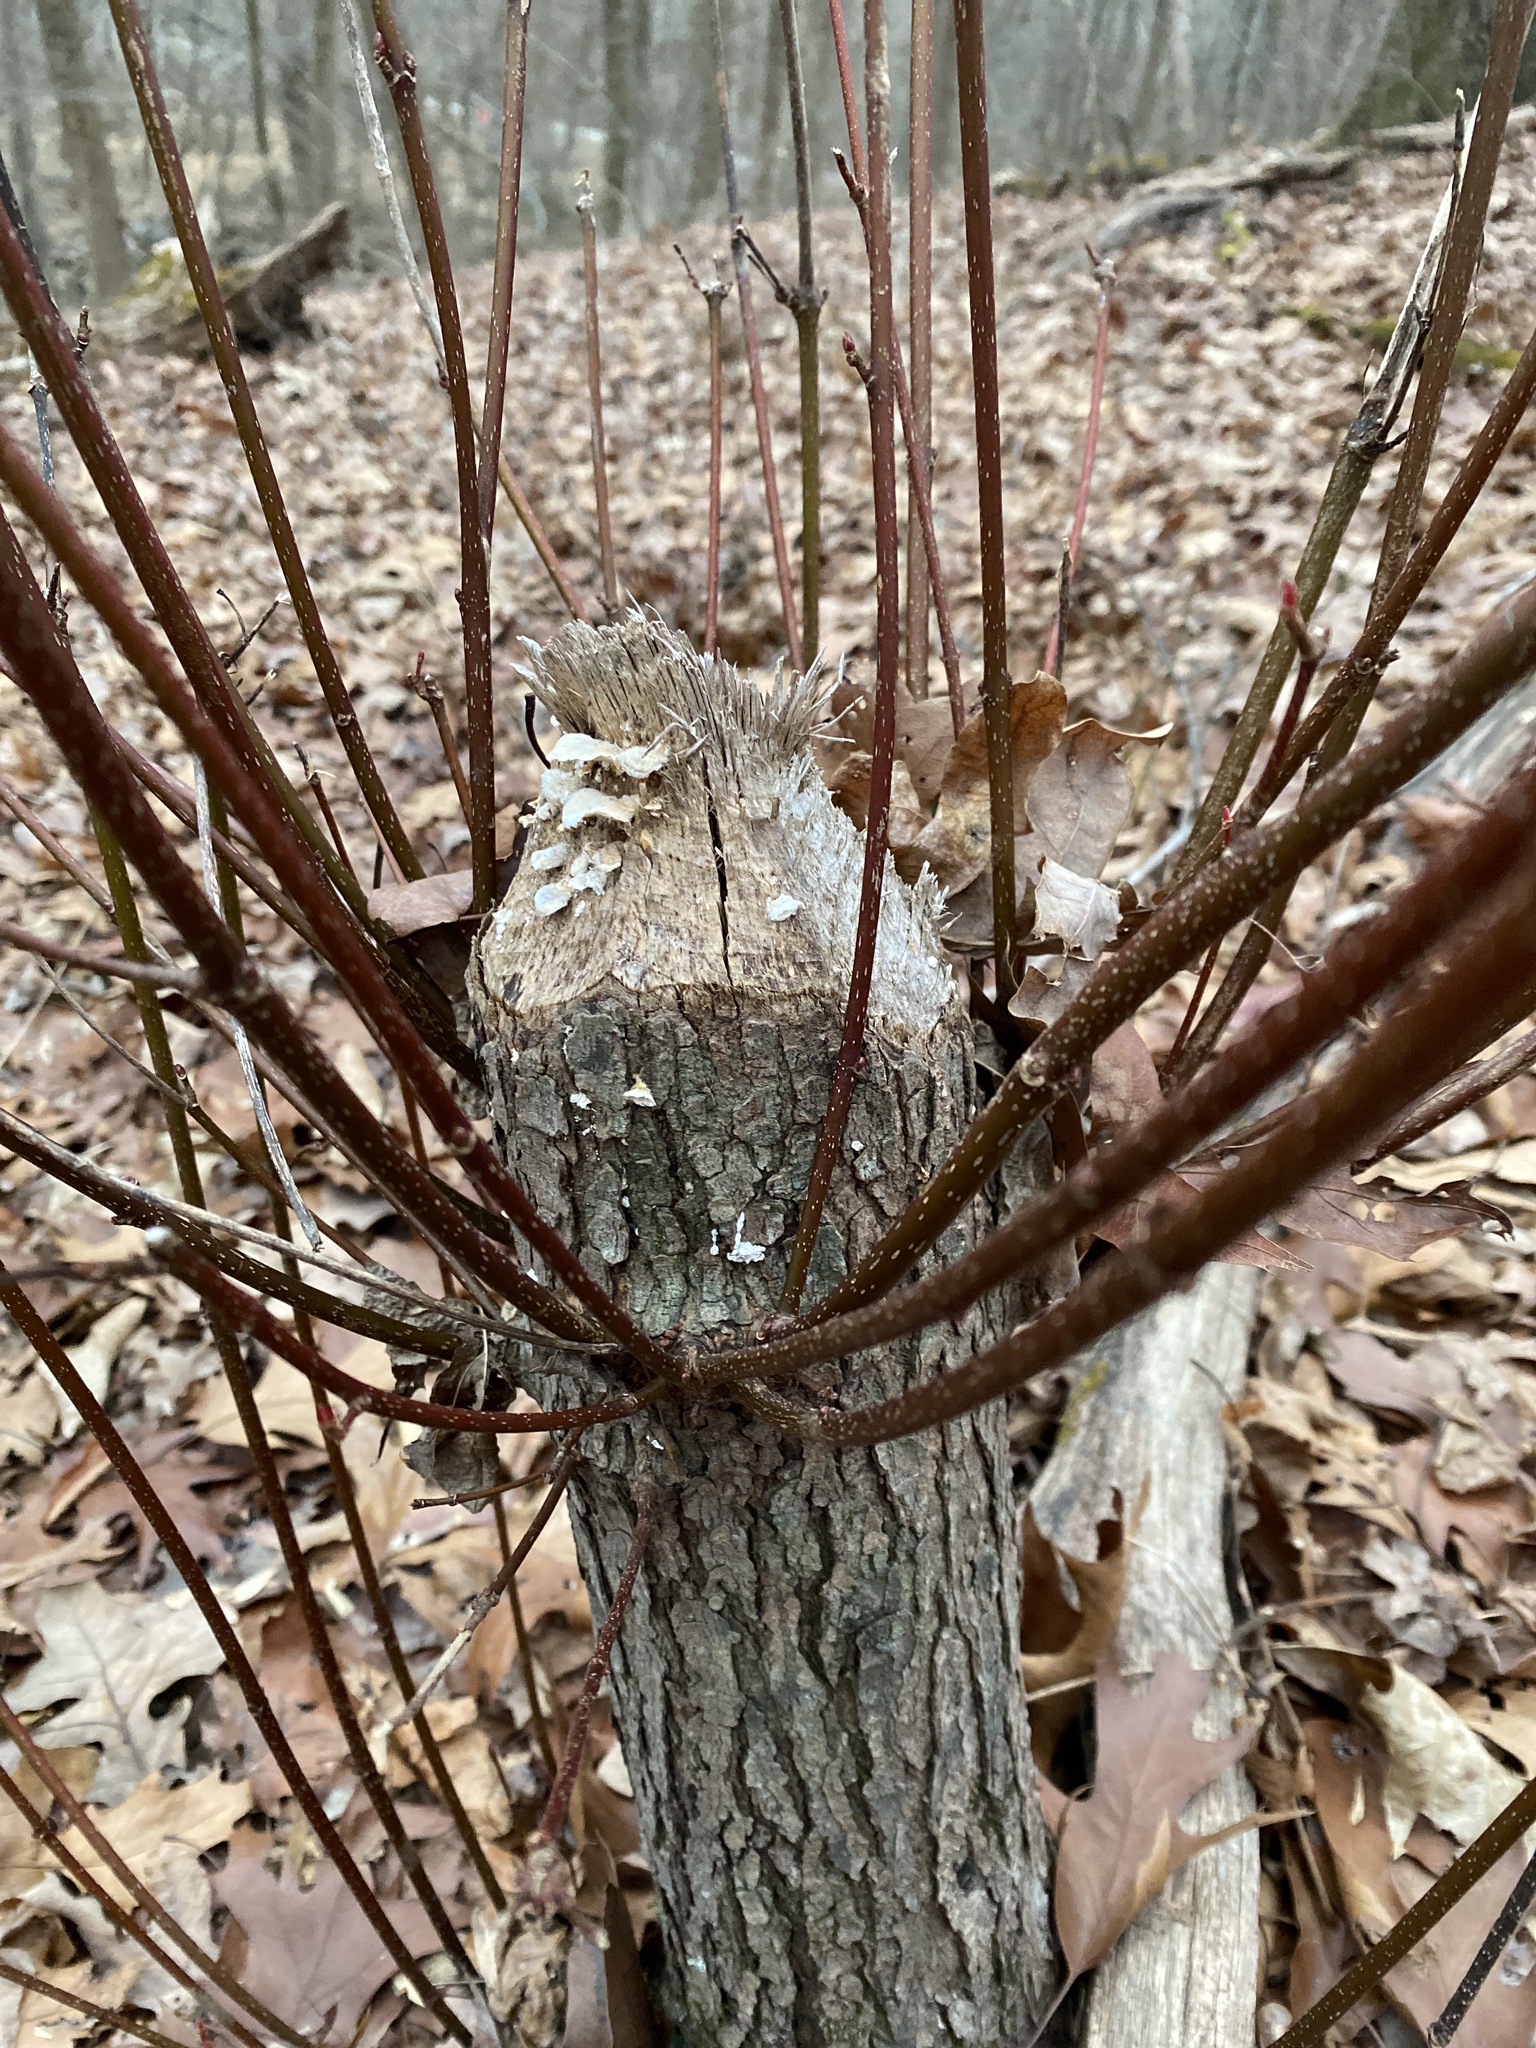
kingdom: Animalia
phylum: Chordata
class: Mammalia
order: Rodentia
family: Castoridae
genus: Castor
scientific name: Castor canadensis
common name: American beaver
